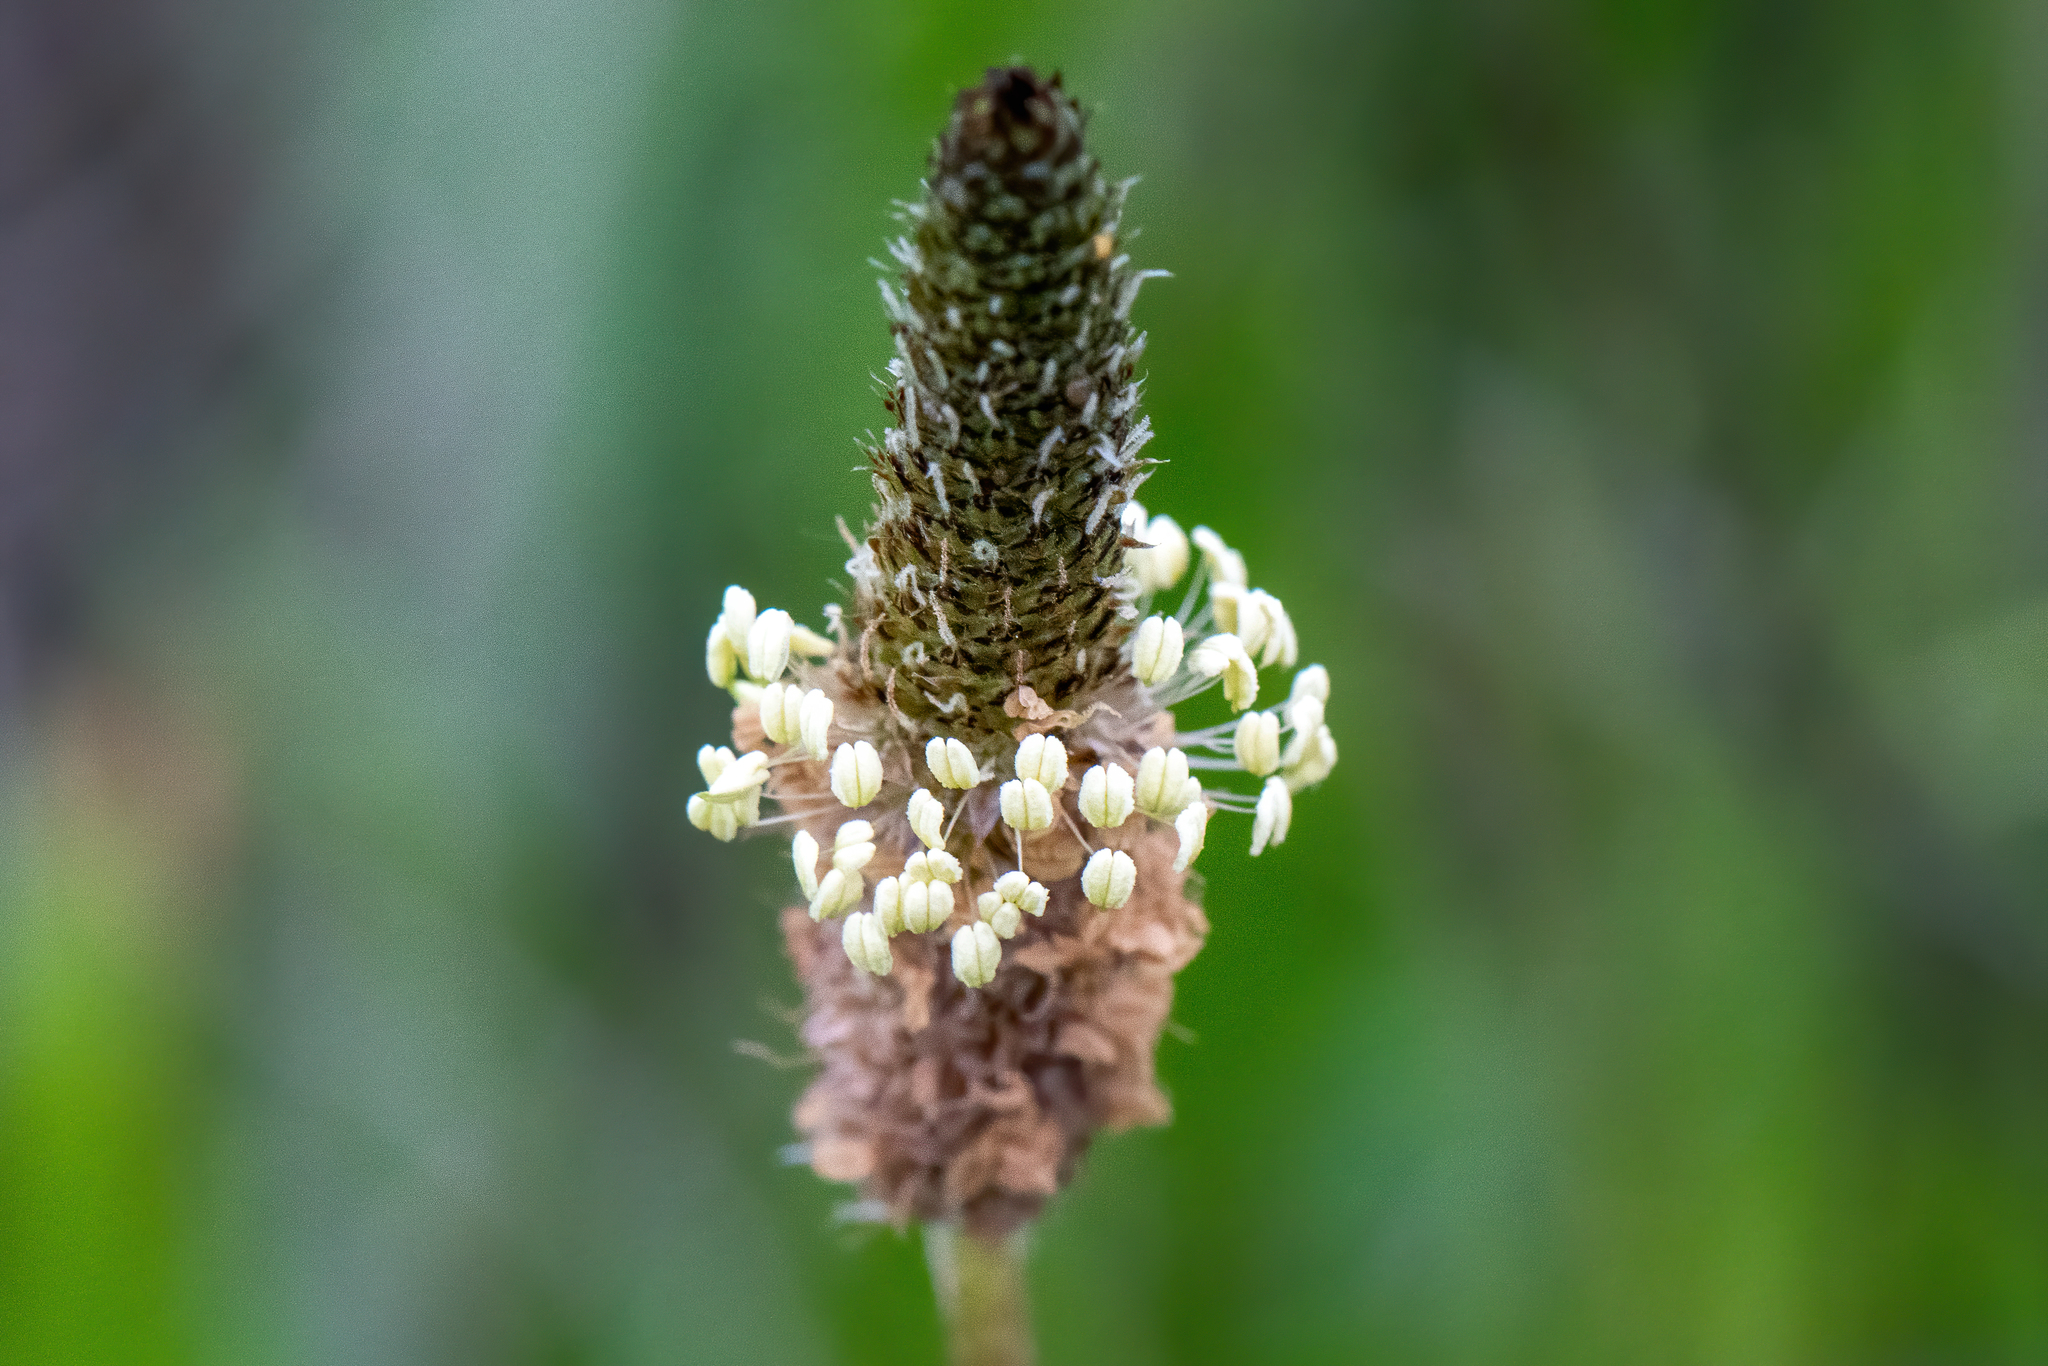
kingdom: Plantae
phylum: Tracheophyta
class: Magnoliopsida
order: Lamiales
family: Plantaginaceae
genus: Plantago
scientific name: Plantago lanceolata
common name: Ribwort plantain
